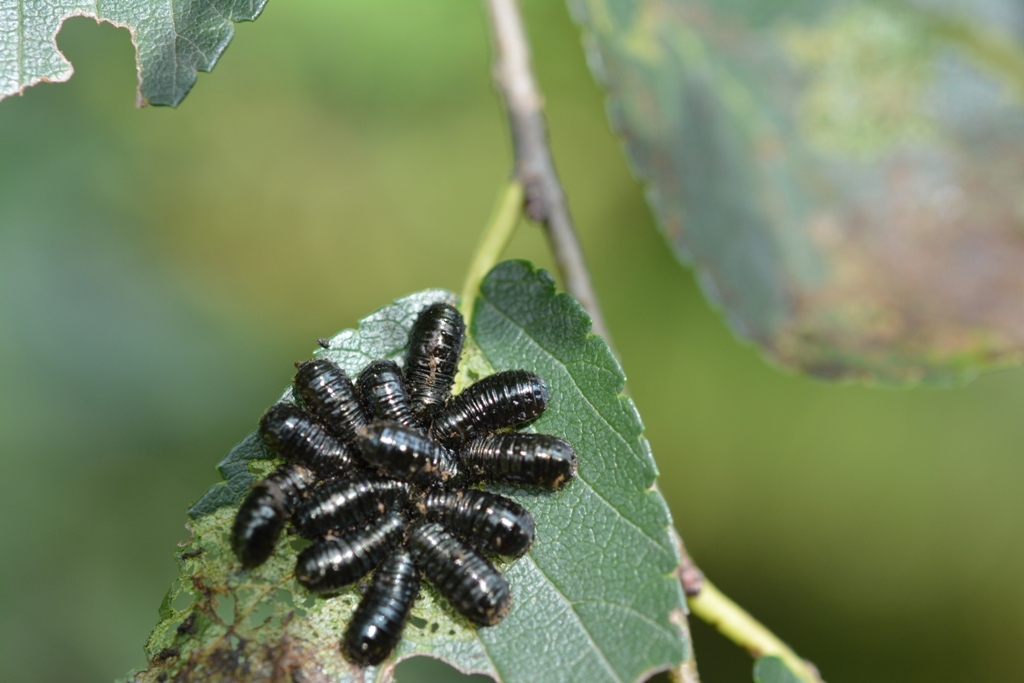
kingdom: Animalia
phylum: Arthropoda
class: Insecta
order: Coleoptera
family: Chrysomelidae
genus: Monocesta
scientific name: Monocesta
